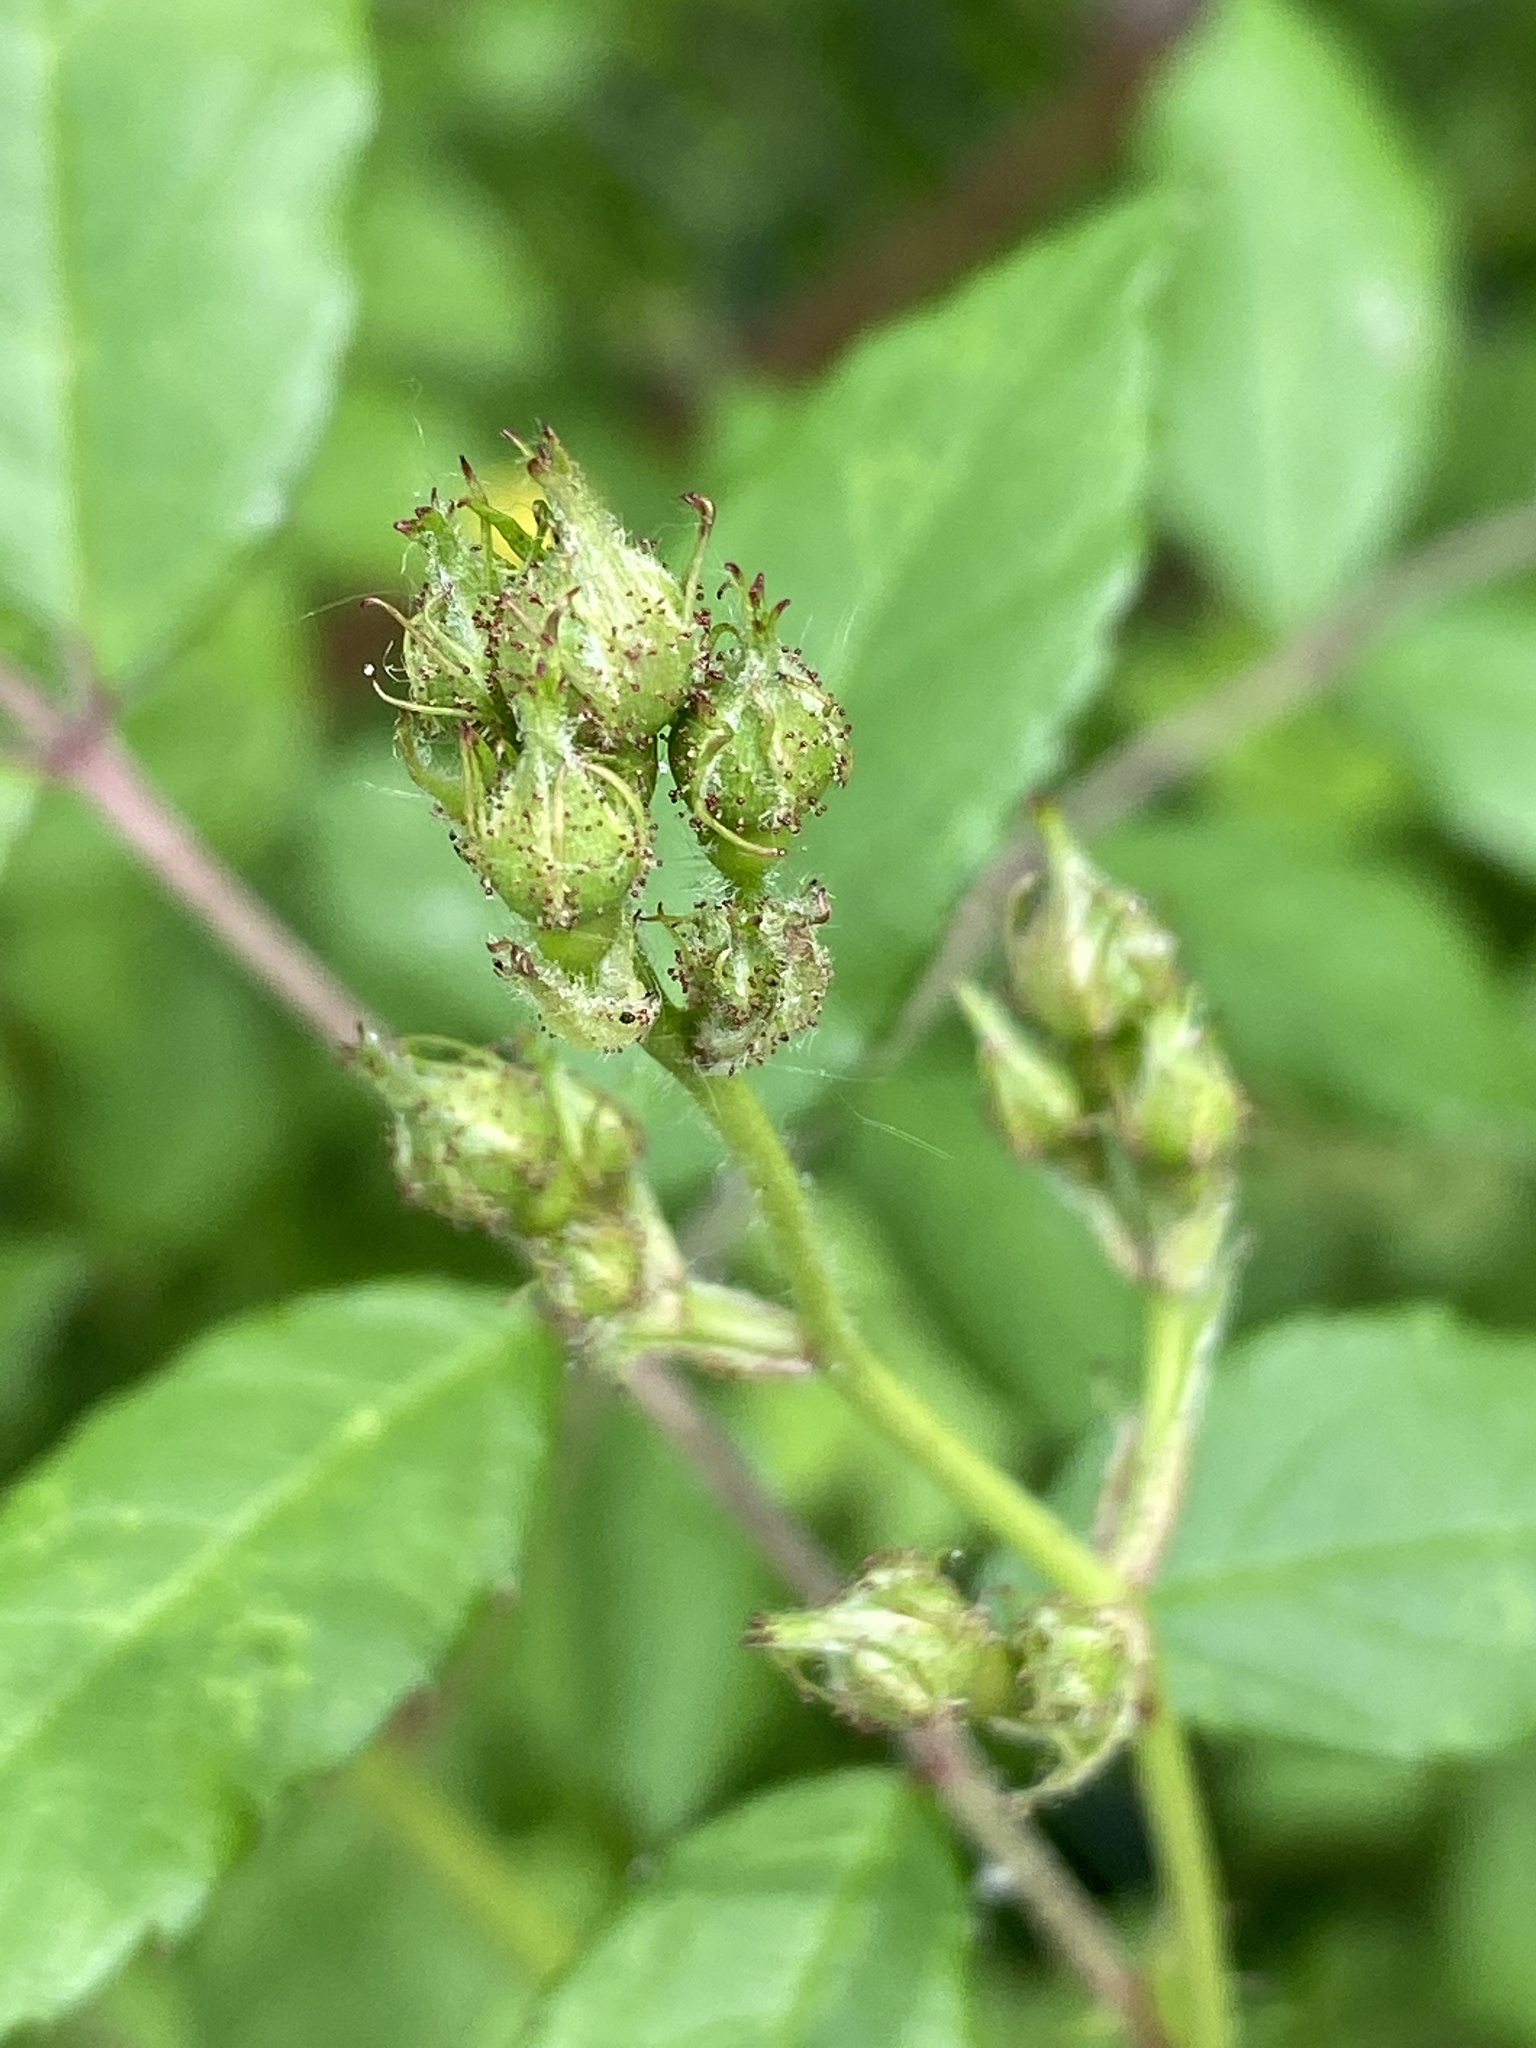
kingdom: Plantae
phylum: Tracheophyta
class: Magnoliopsida
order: Rosales
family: Rosaceae
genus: Rosa
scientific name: Rosa multiflora
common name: Multiflora rose
